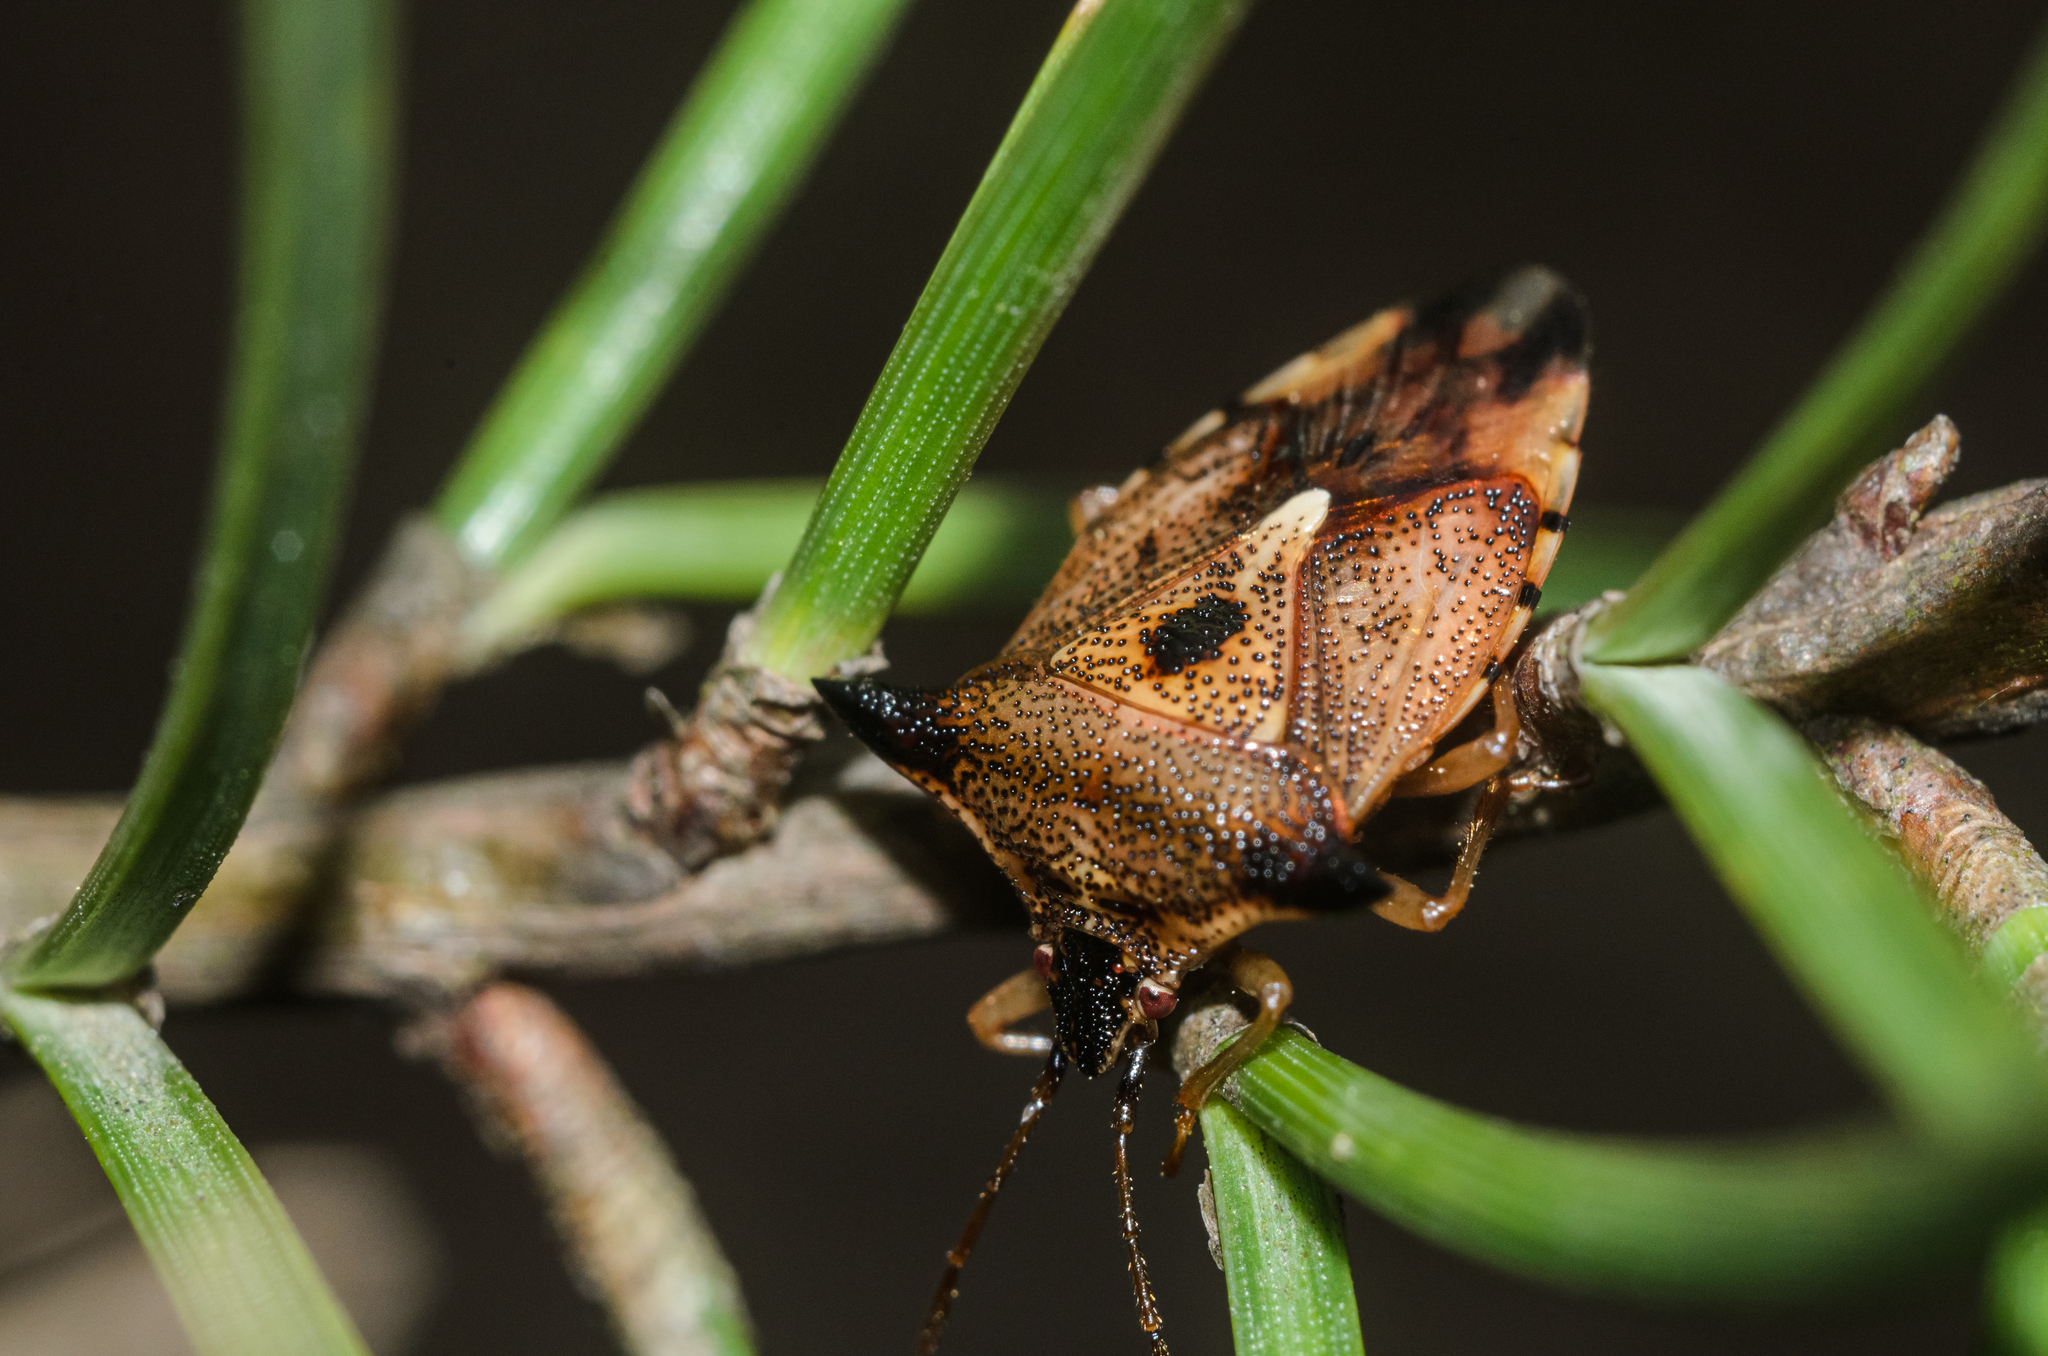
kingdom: Animalia
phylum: Arthropoda
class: Insecta
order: Hemiptera
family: Acanthosomatidae
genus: Elasmucha
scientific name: Elasmucha ferrugata
